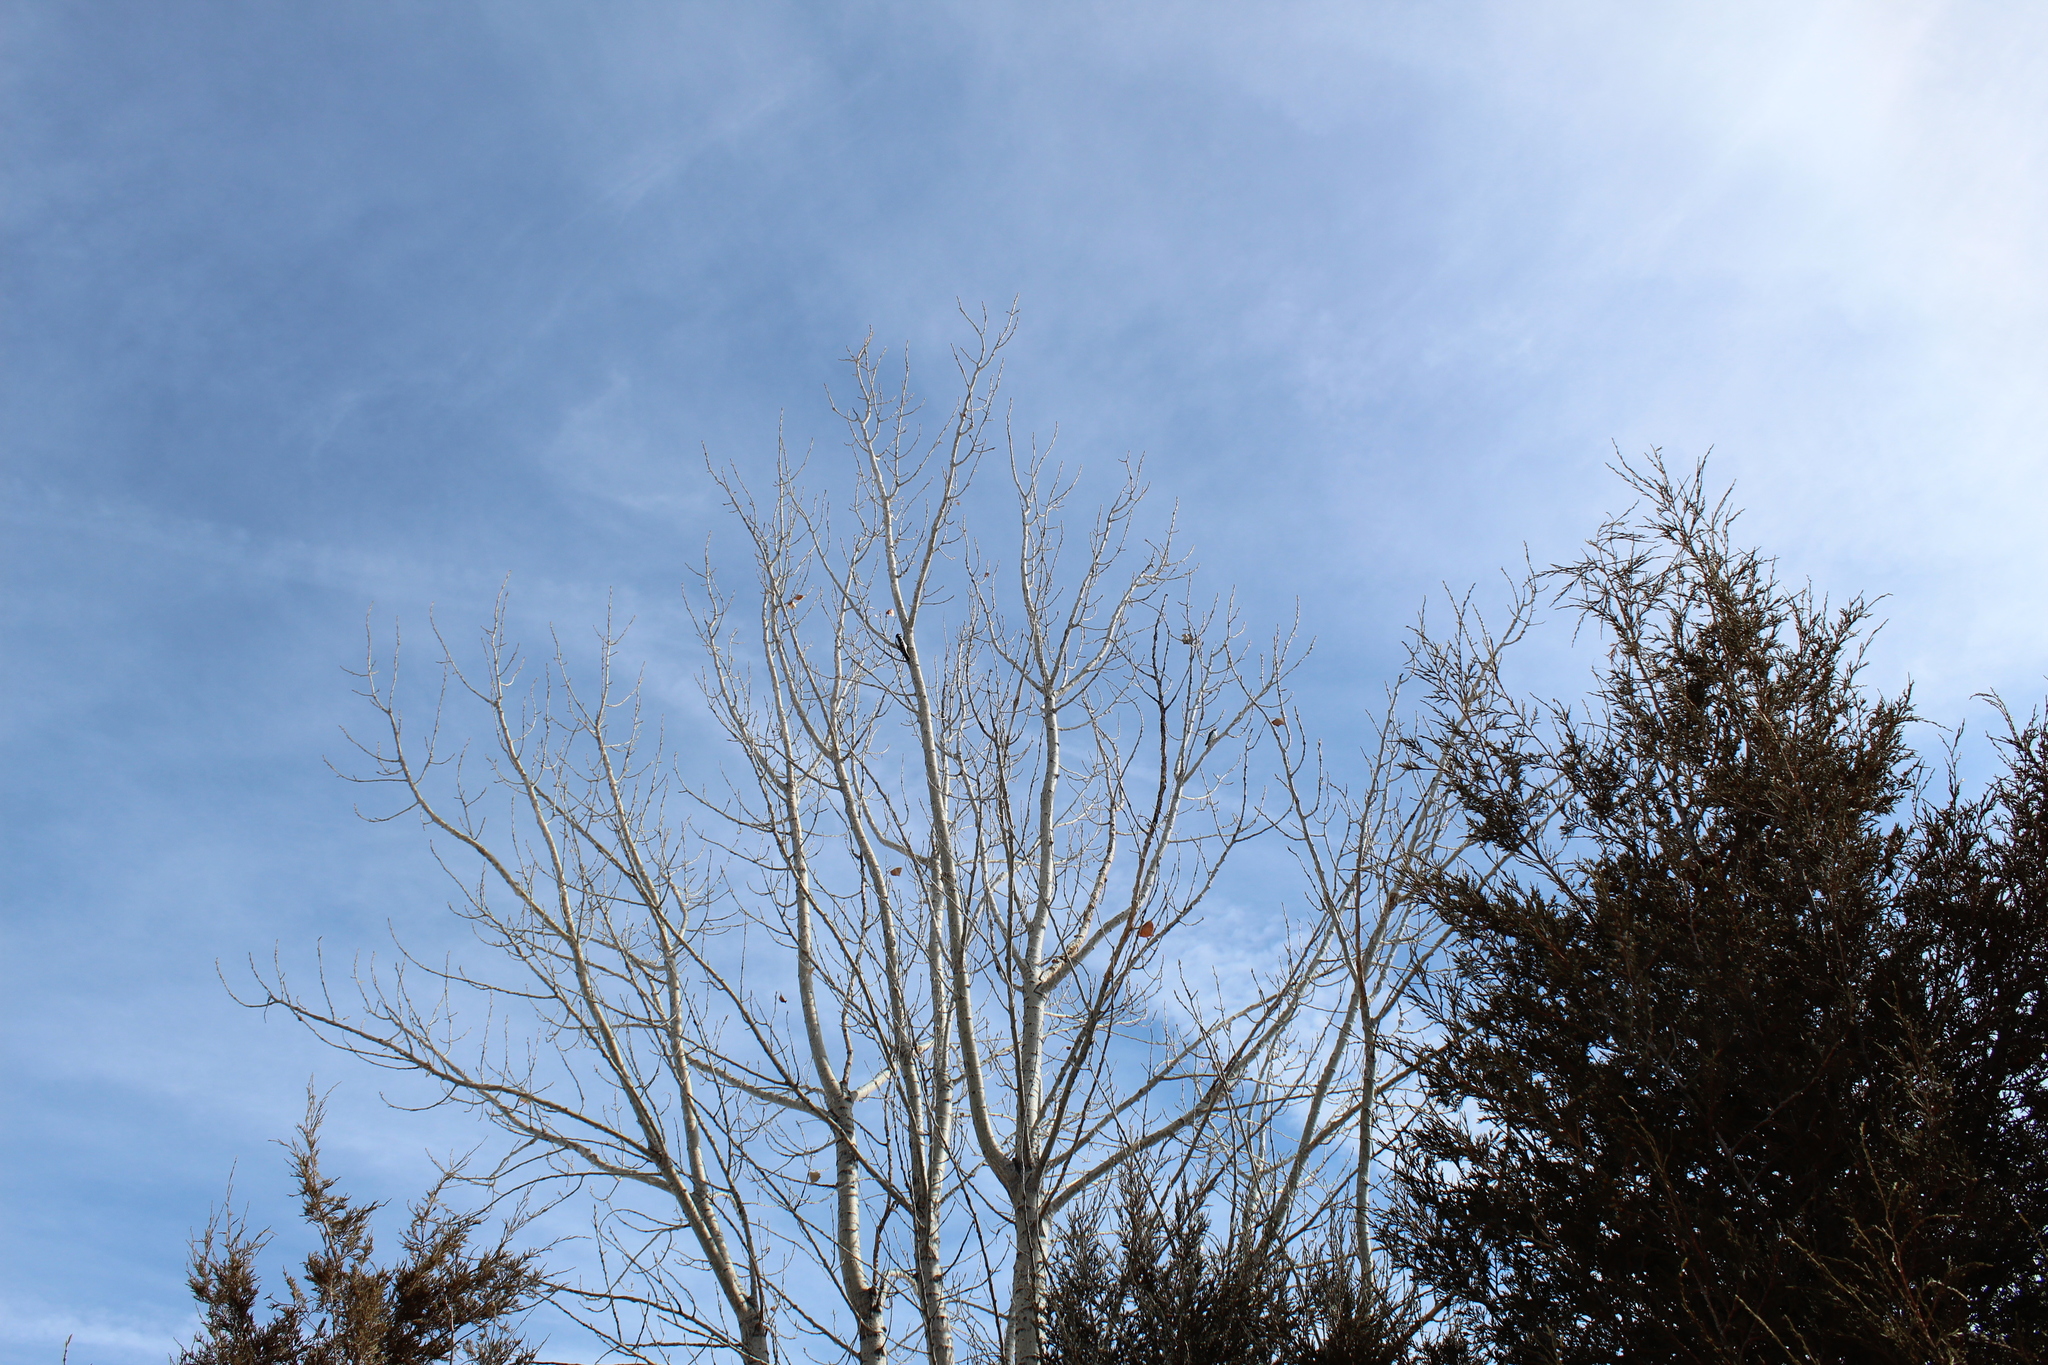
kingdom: Animalia
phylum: Chordata
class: Aves
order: Piciformes
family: Picidae
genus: Leuconotopicus
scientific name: Leuconotopicus villosus
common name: Hairy woodpecker
